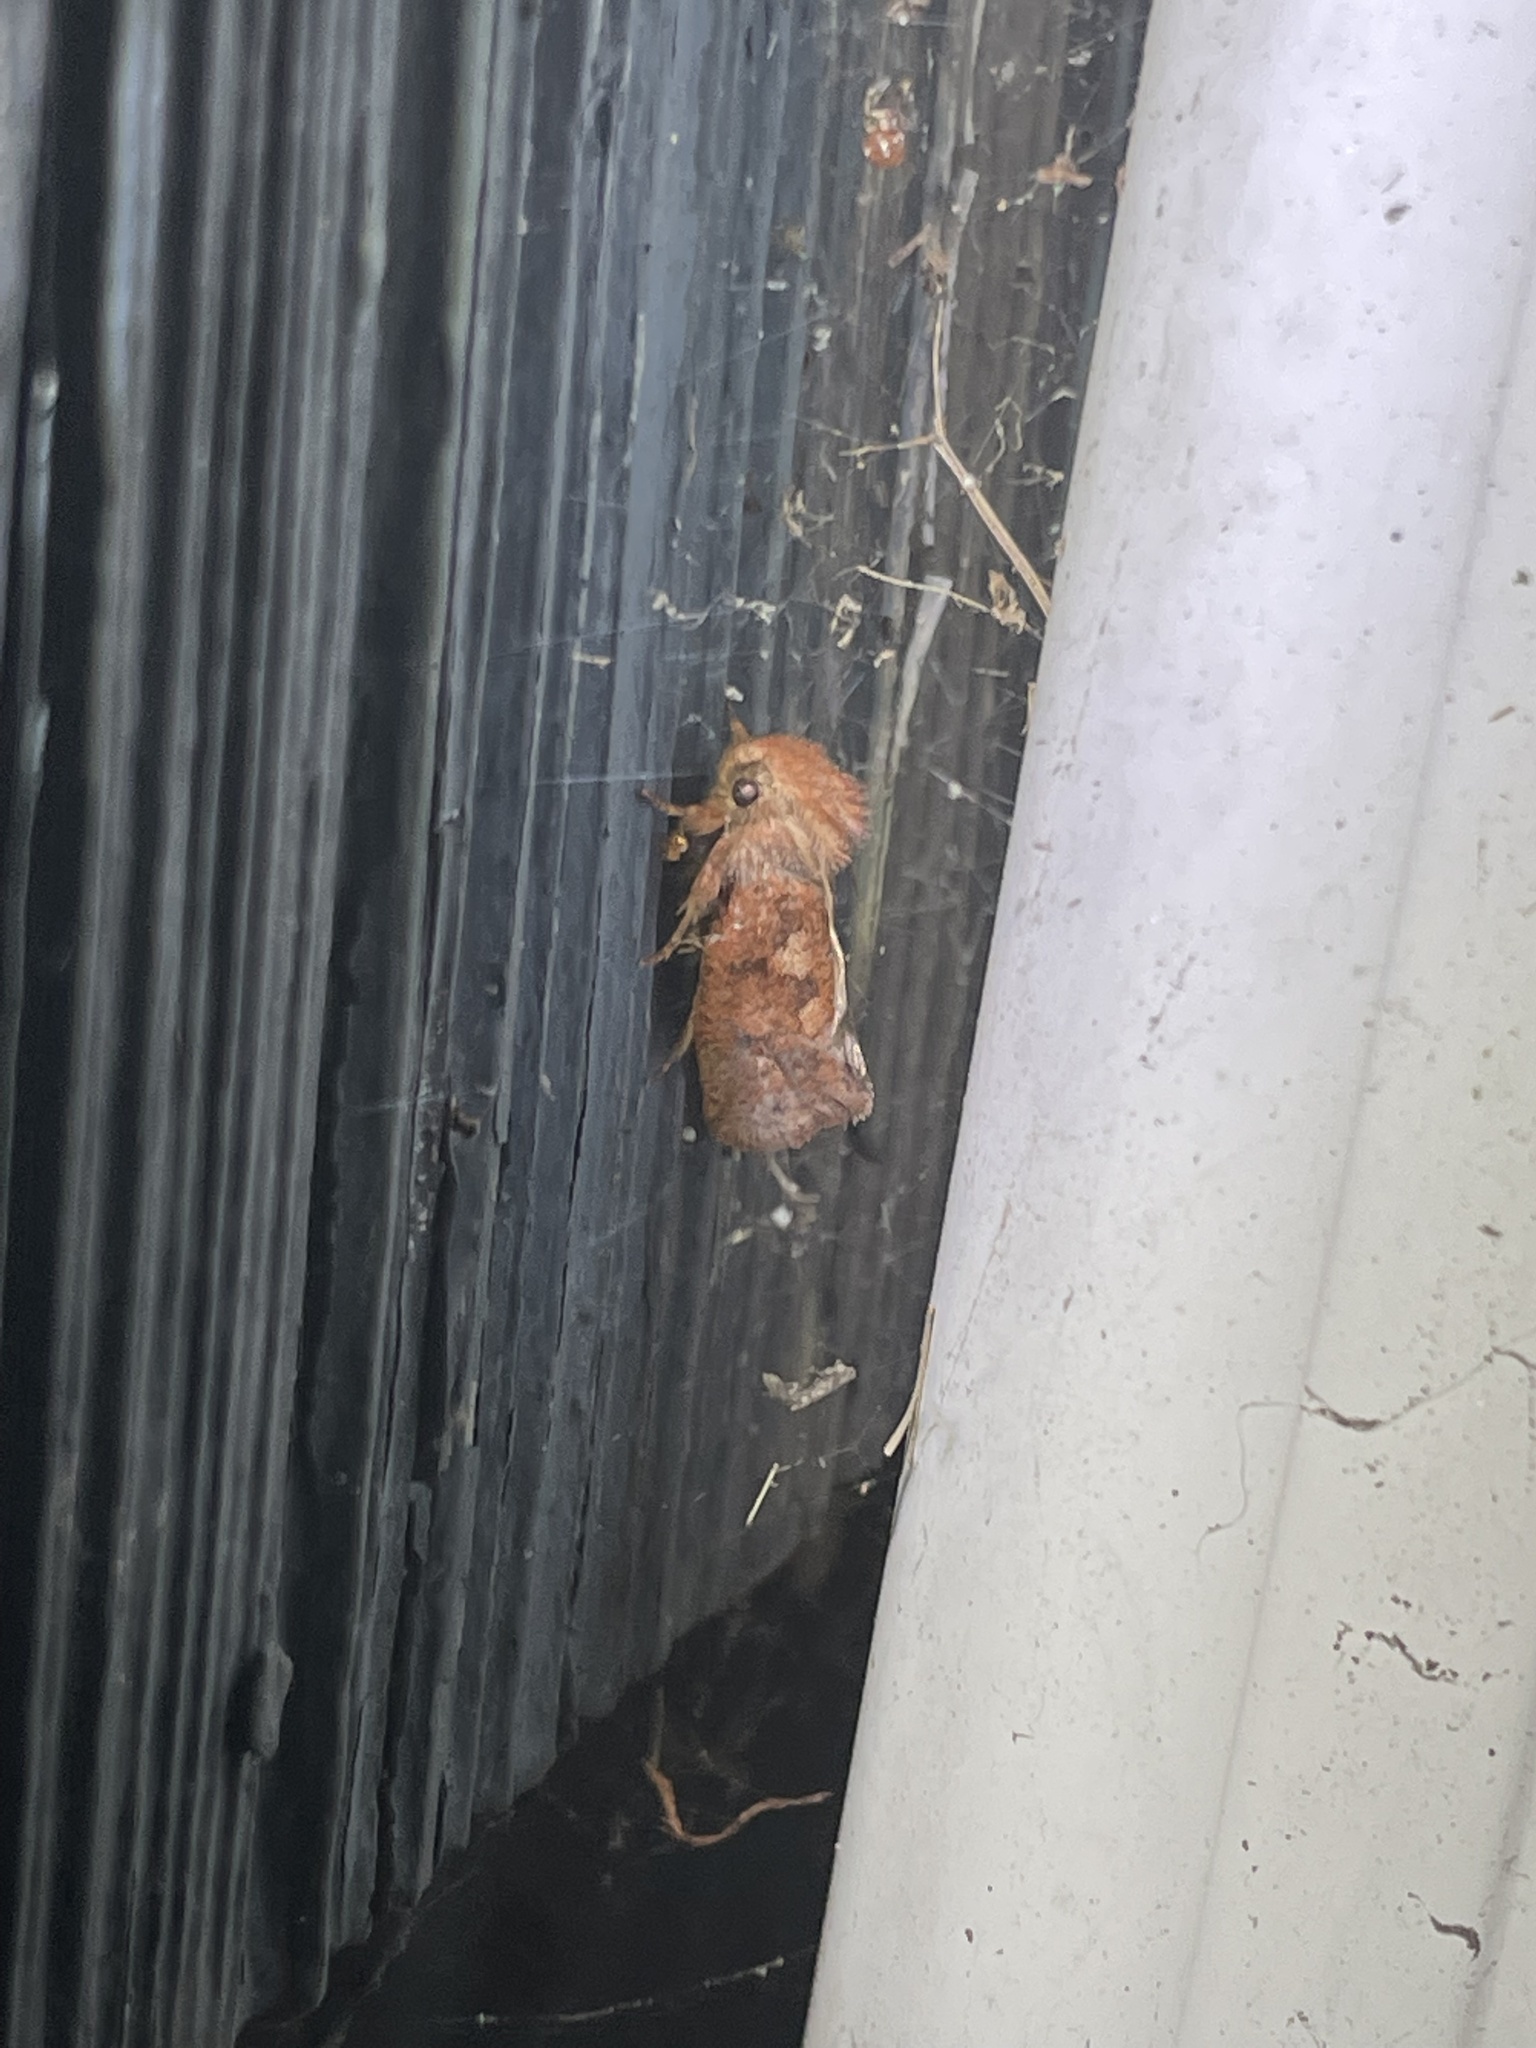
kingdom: Animalia
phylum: Arthropoda
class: Insecta
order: Lepidoptera
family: Tineidae
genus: Acrolophus
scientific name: Acrolophus plumifrontella
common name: Eastern grass tubeworm moth
